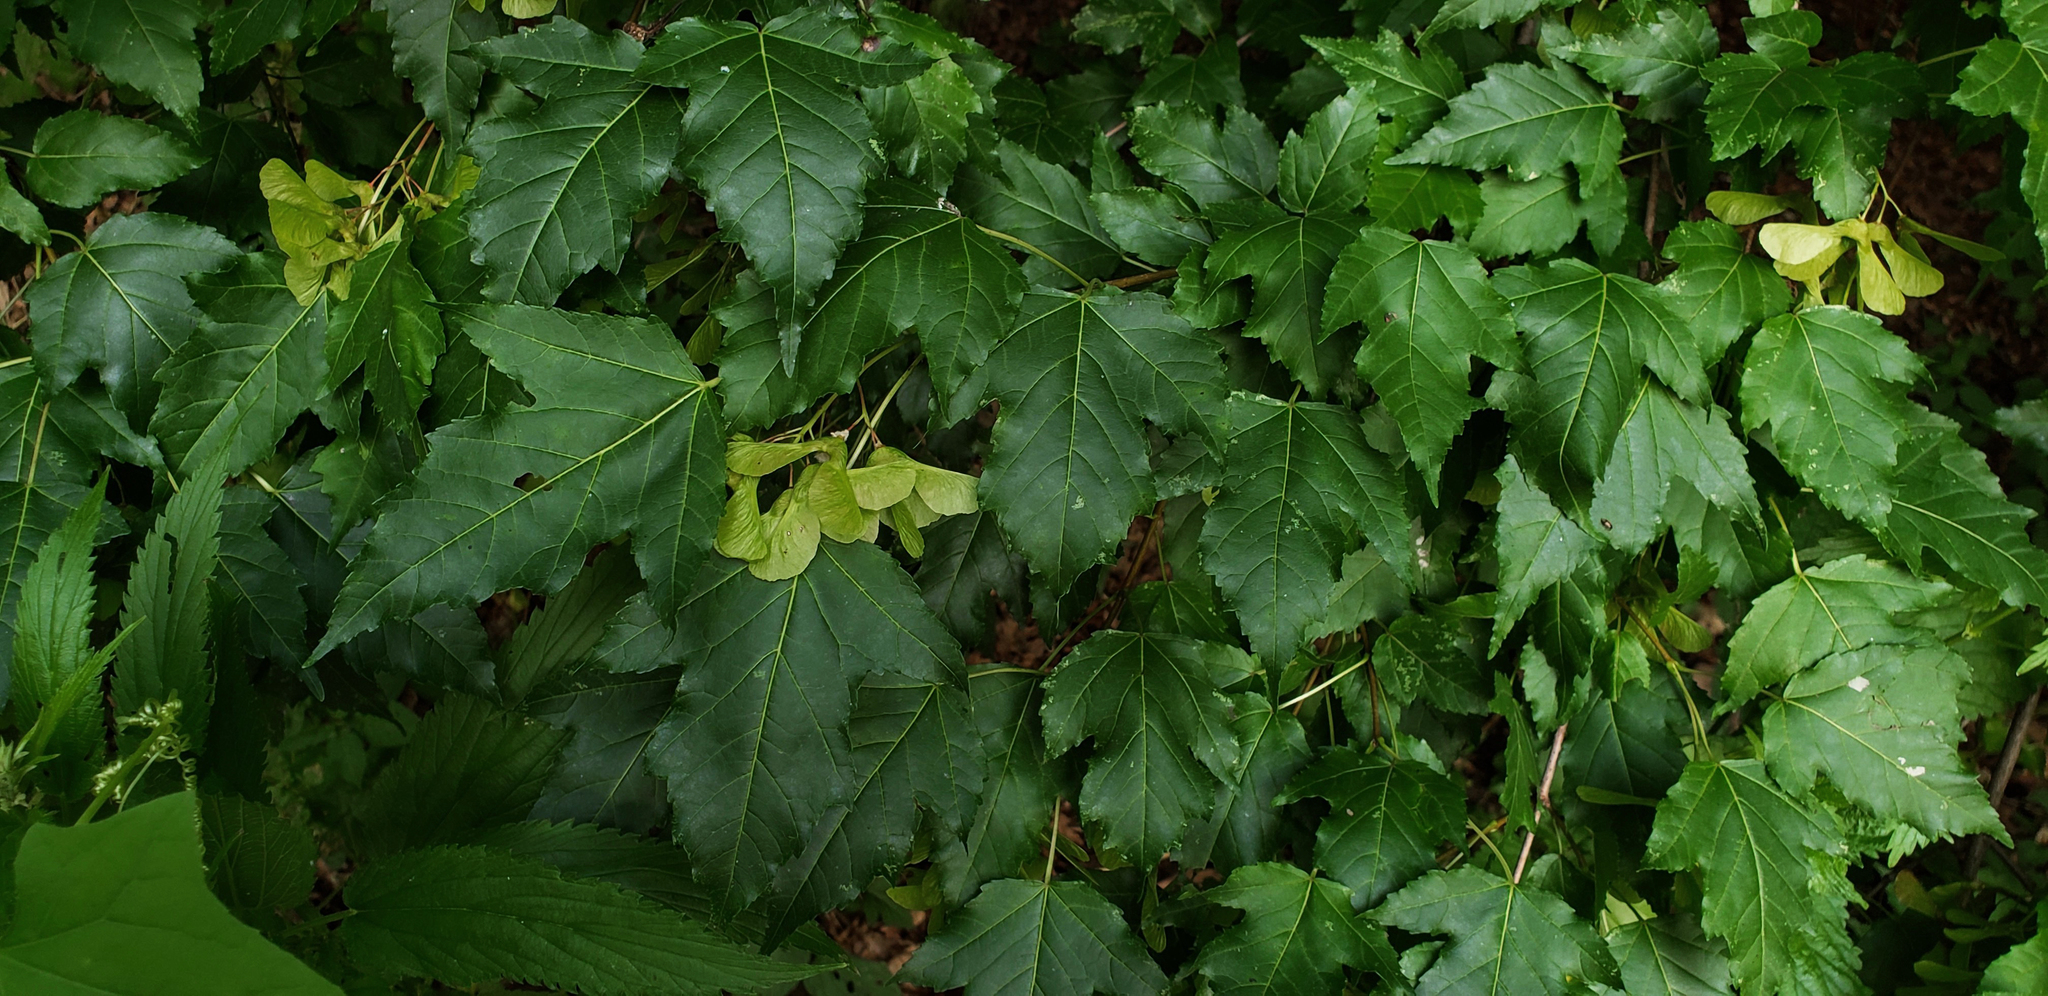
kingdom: Plantae
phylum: Tracheophyta
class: Magnoliopsida
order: Sapindales
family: Sapindaceae
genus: Acer
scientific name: Acer tataricum
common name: Tartar maple
